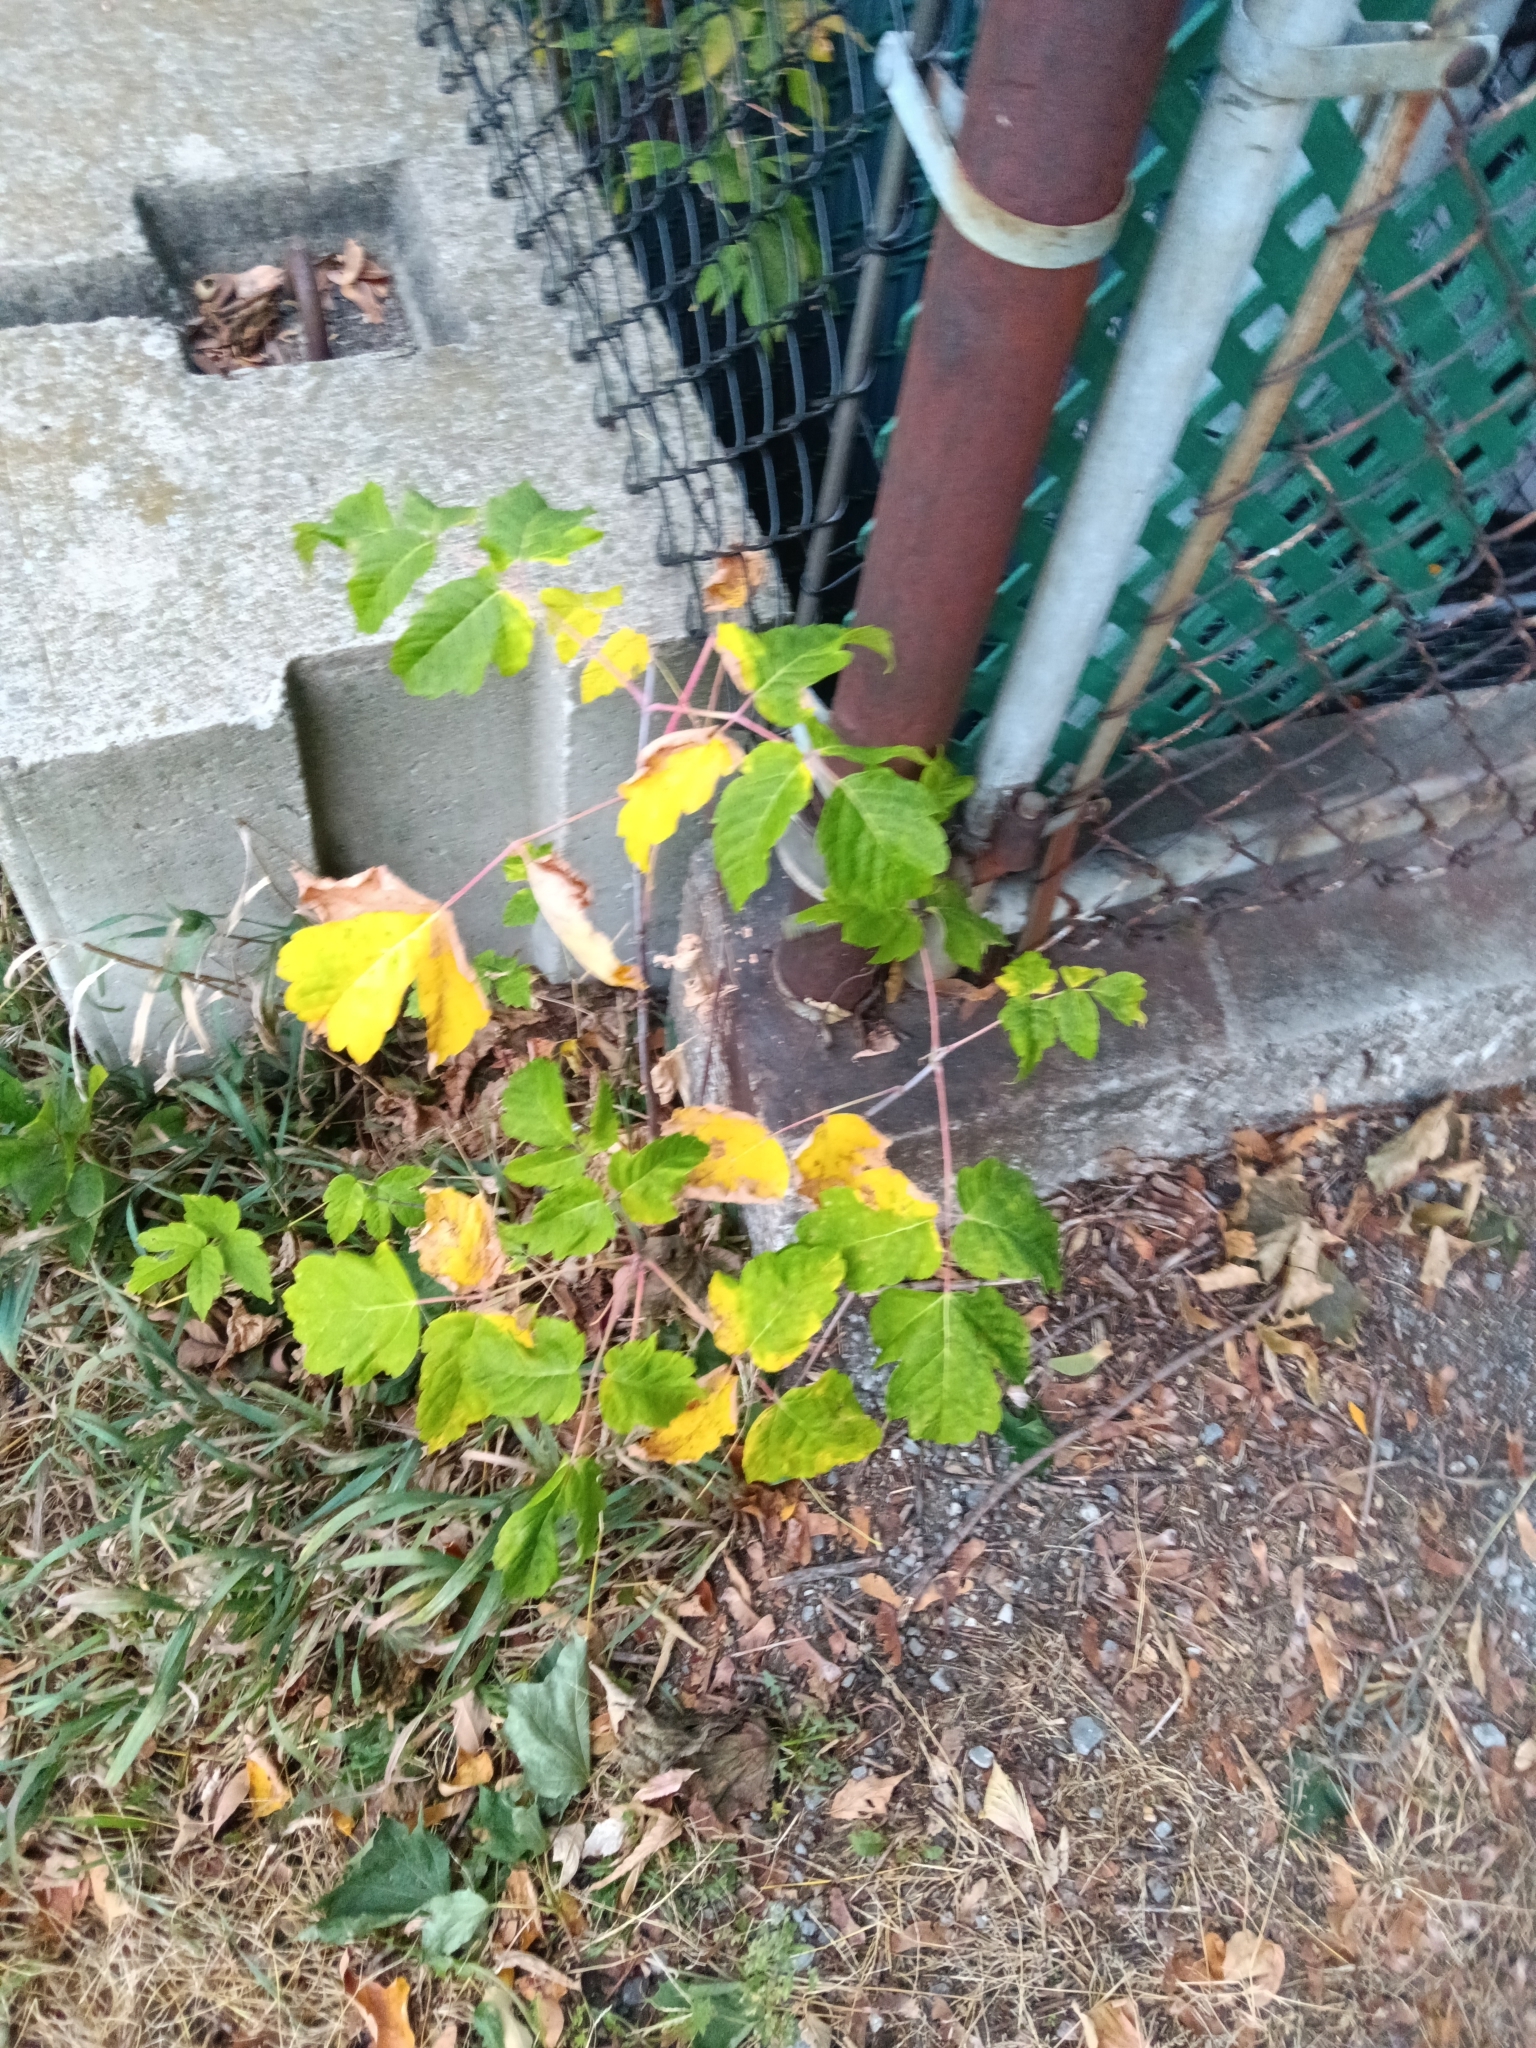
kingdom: Plantae
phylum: Tracheophyta
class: Magnoliopsida
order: Sapindales
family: Sapindaceae
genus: Acer
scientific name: Acer negundo
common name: Ashleaf maple
